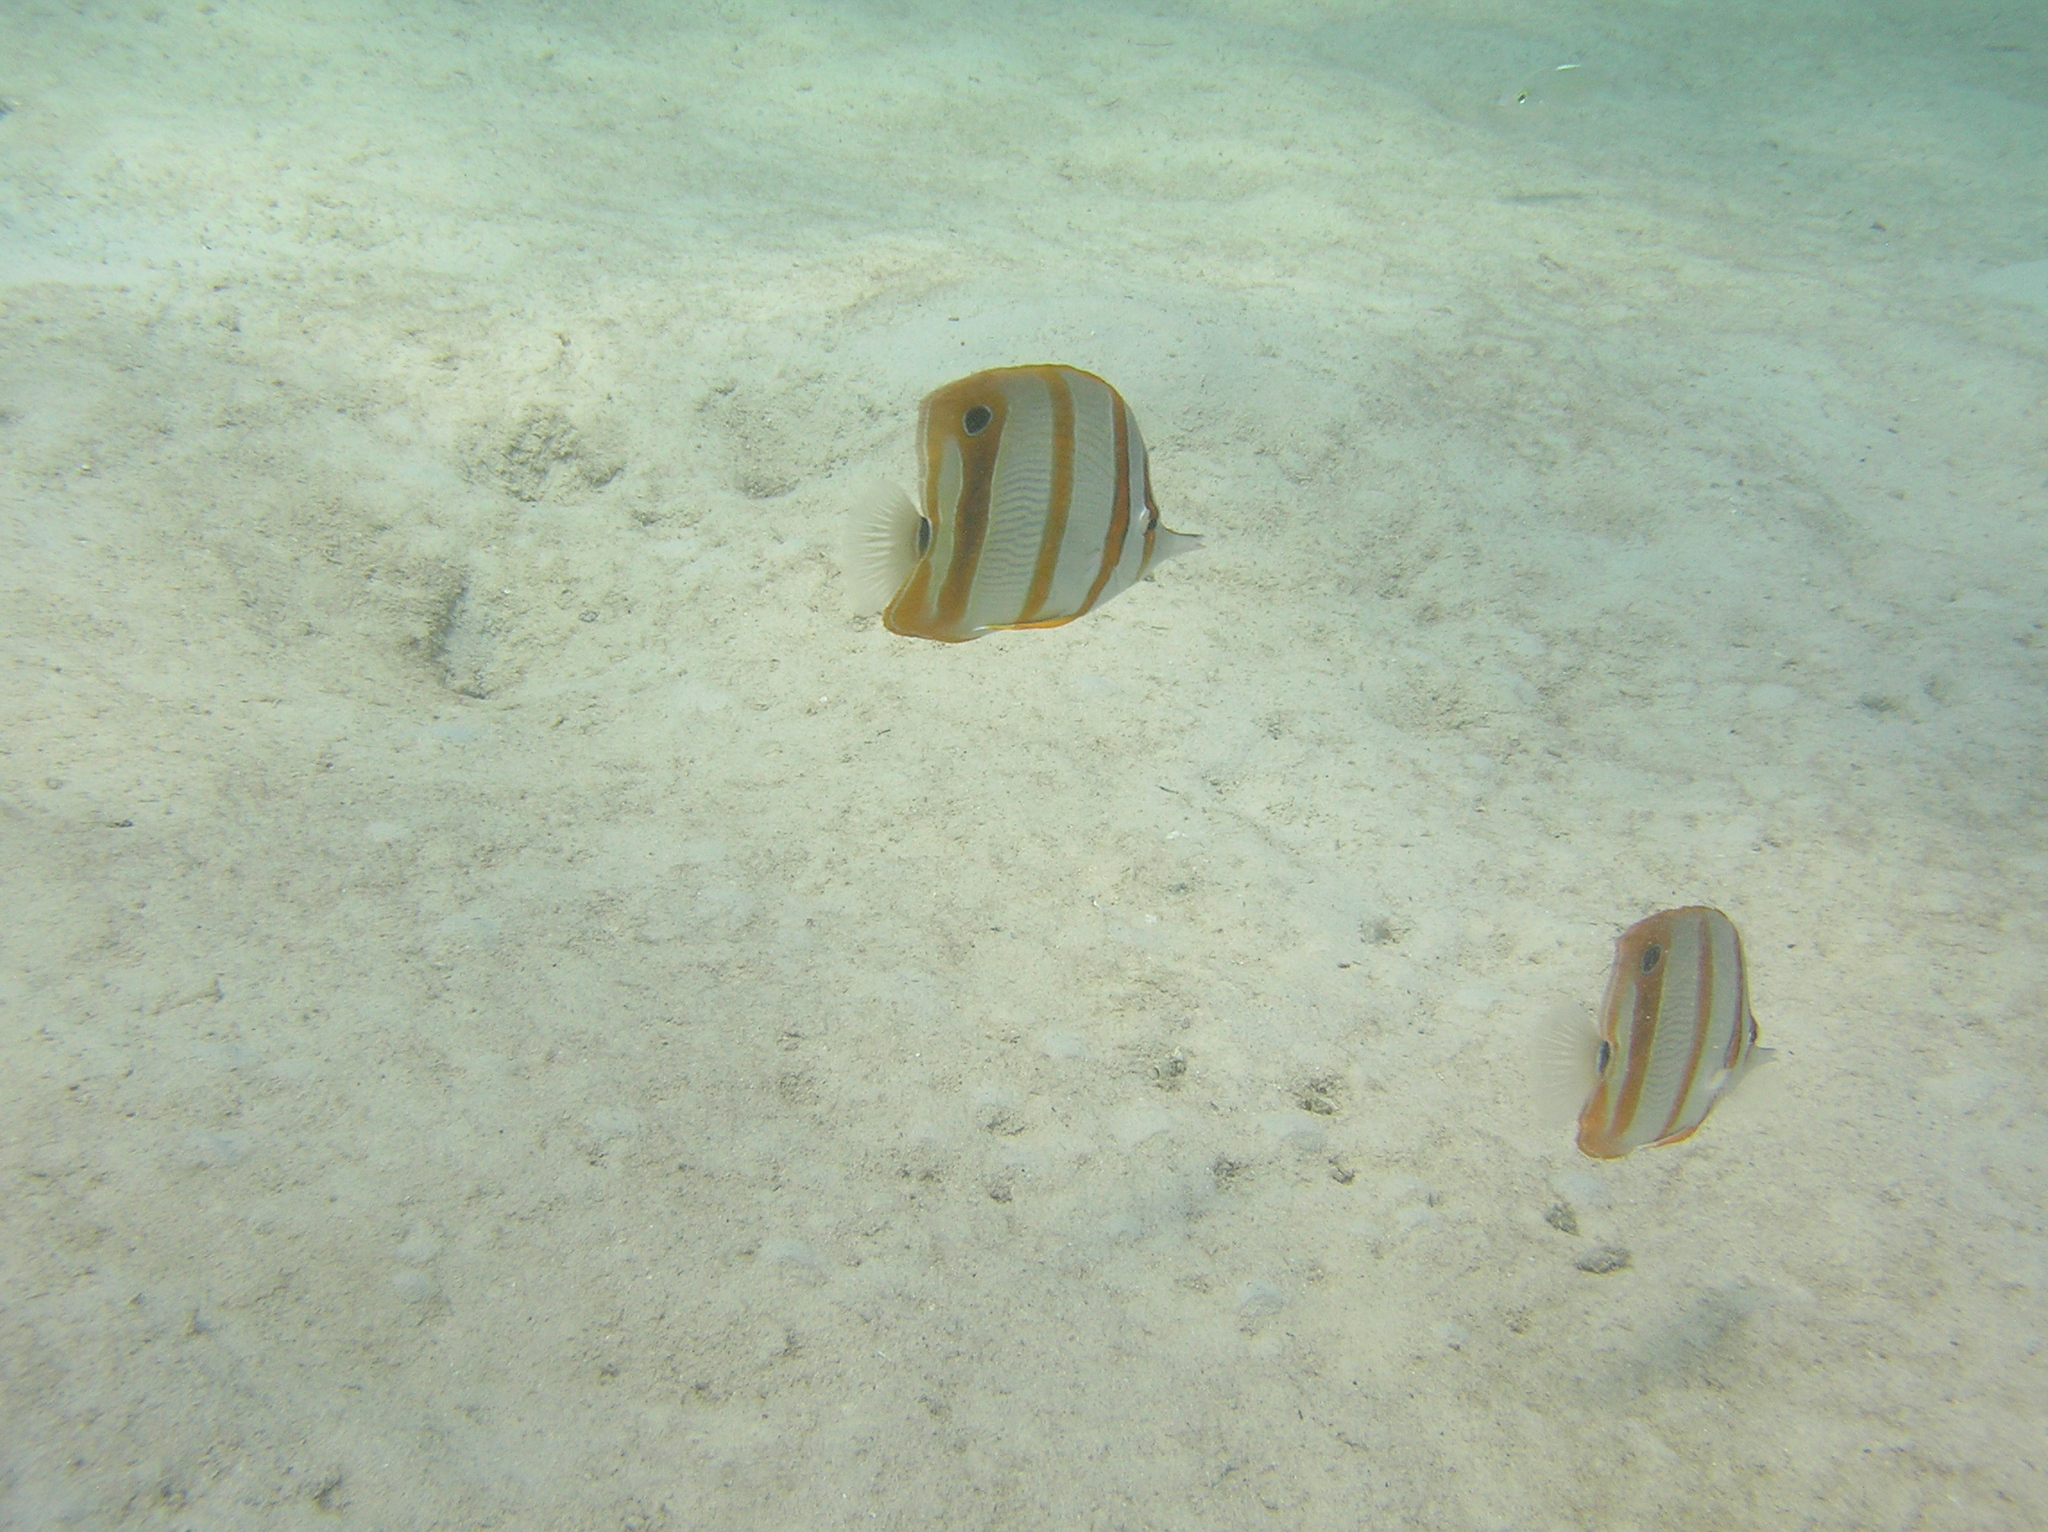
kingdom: Animalia
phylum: Chordata
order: Perciformes
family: Chaetodontidae
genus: Chelmon
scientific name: Chelmon rostratus
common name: Beaked butterflyfish
